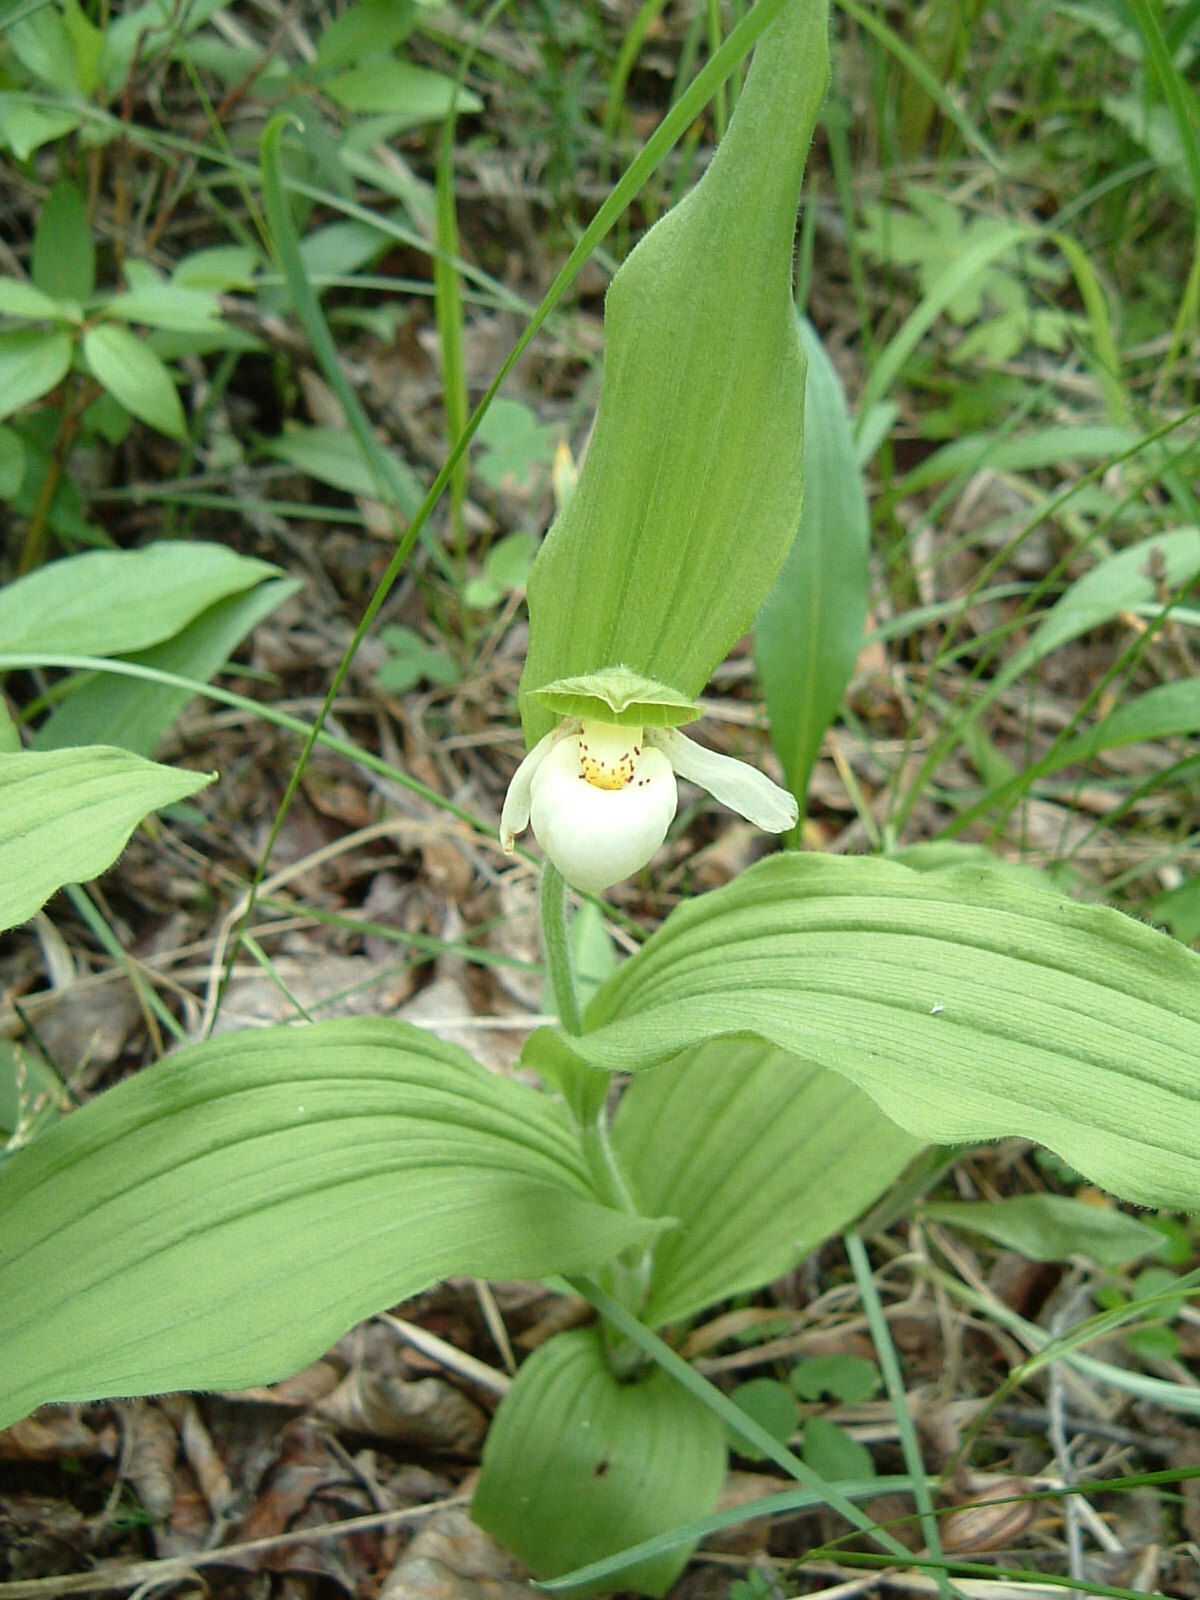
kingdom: Plantae
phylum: Tracheophyta
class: Liliopsida
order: Asparagales
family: Orchidaceae
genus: Cypripedium
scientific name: Cypripedium passerinum
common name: Sparrow's-egg lady's-slipper
